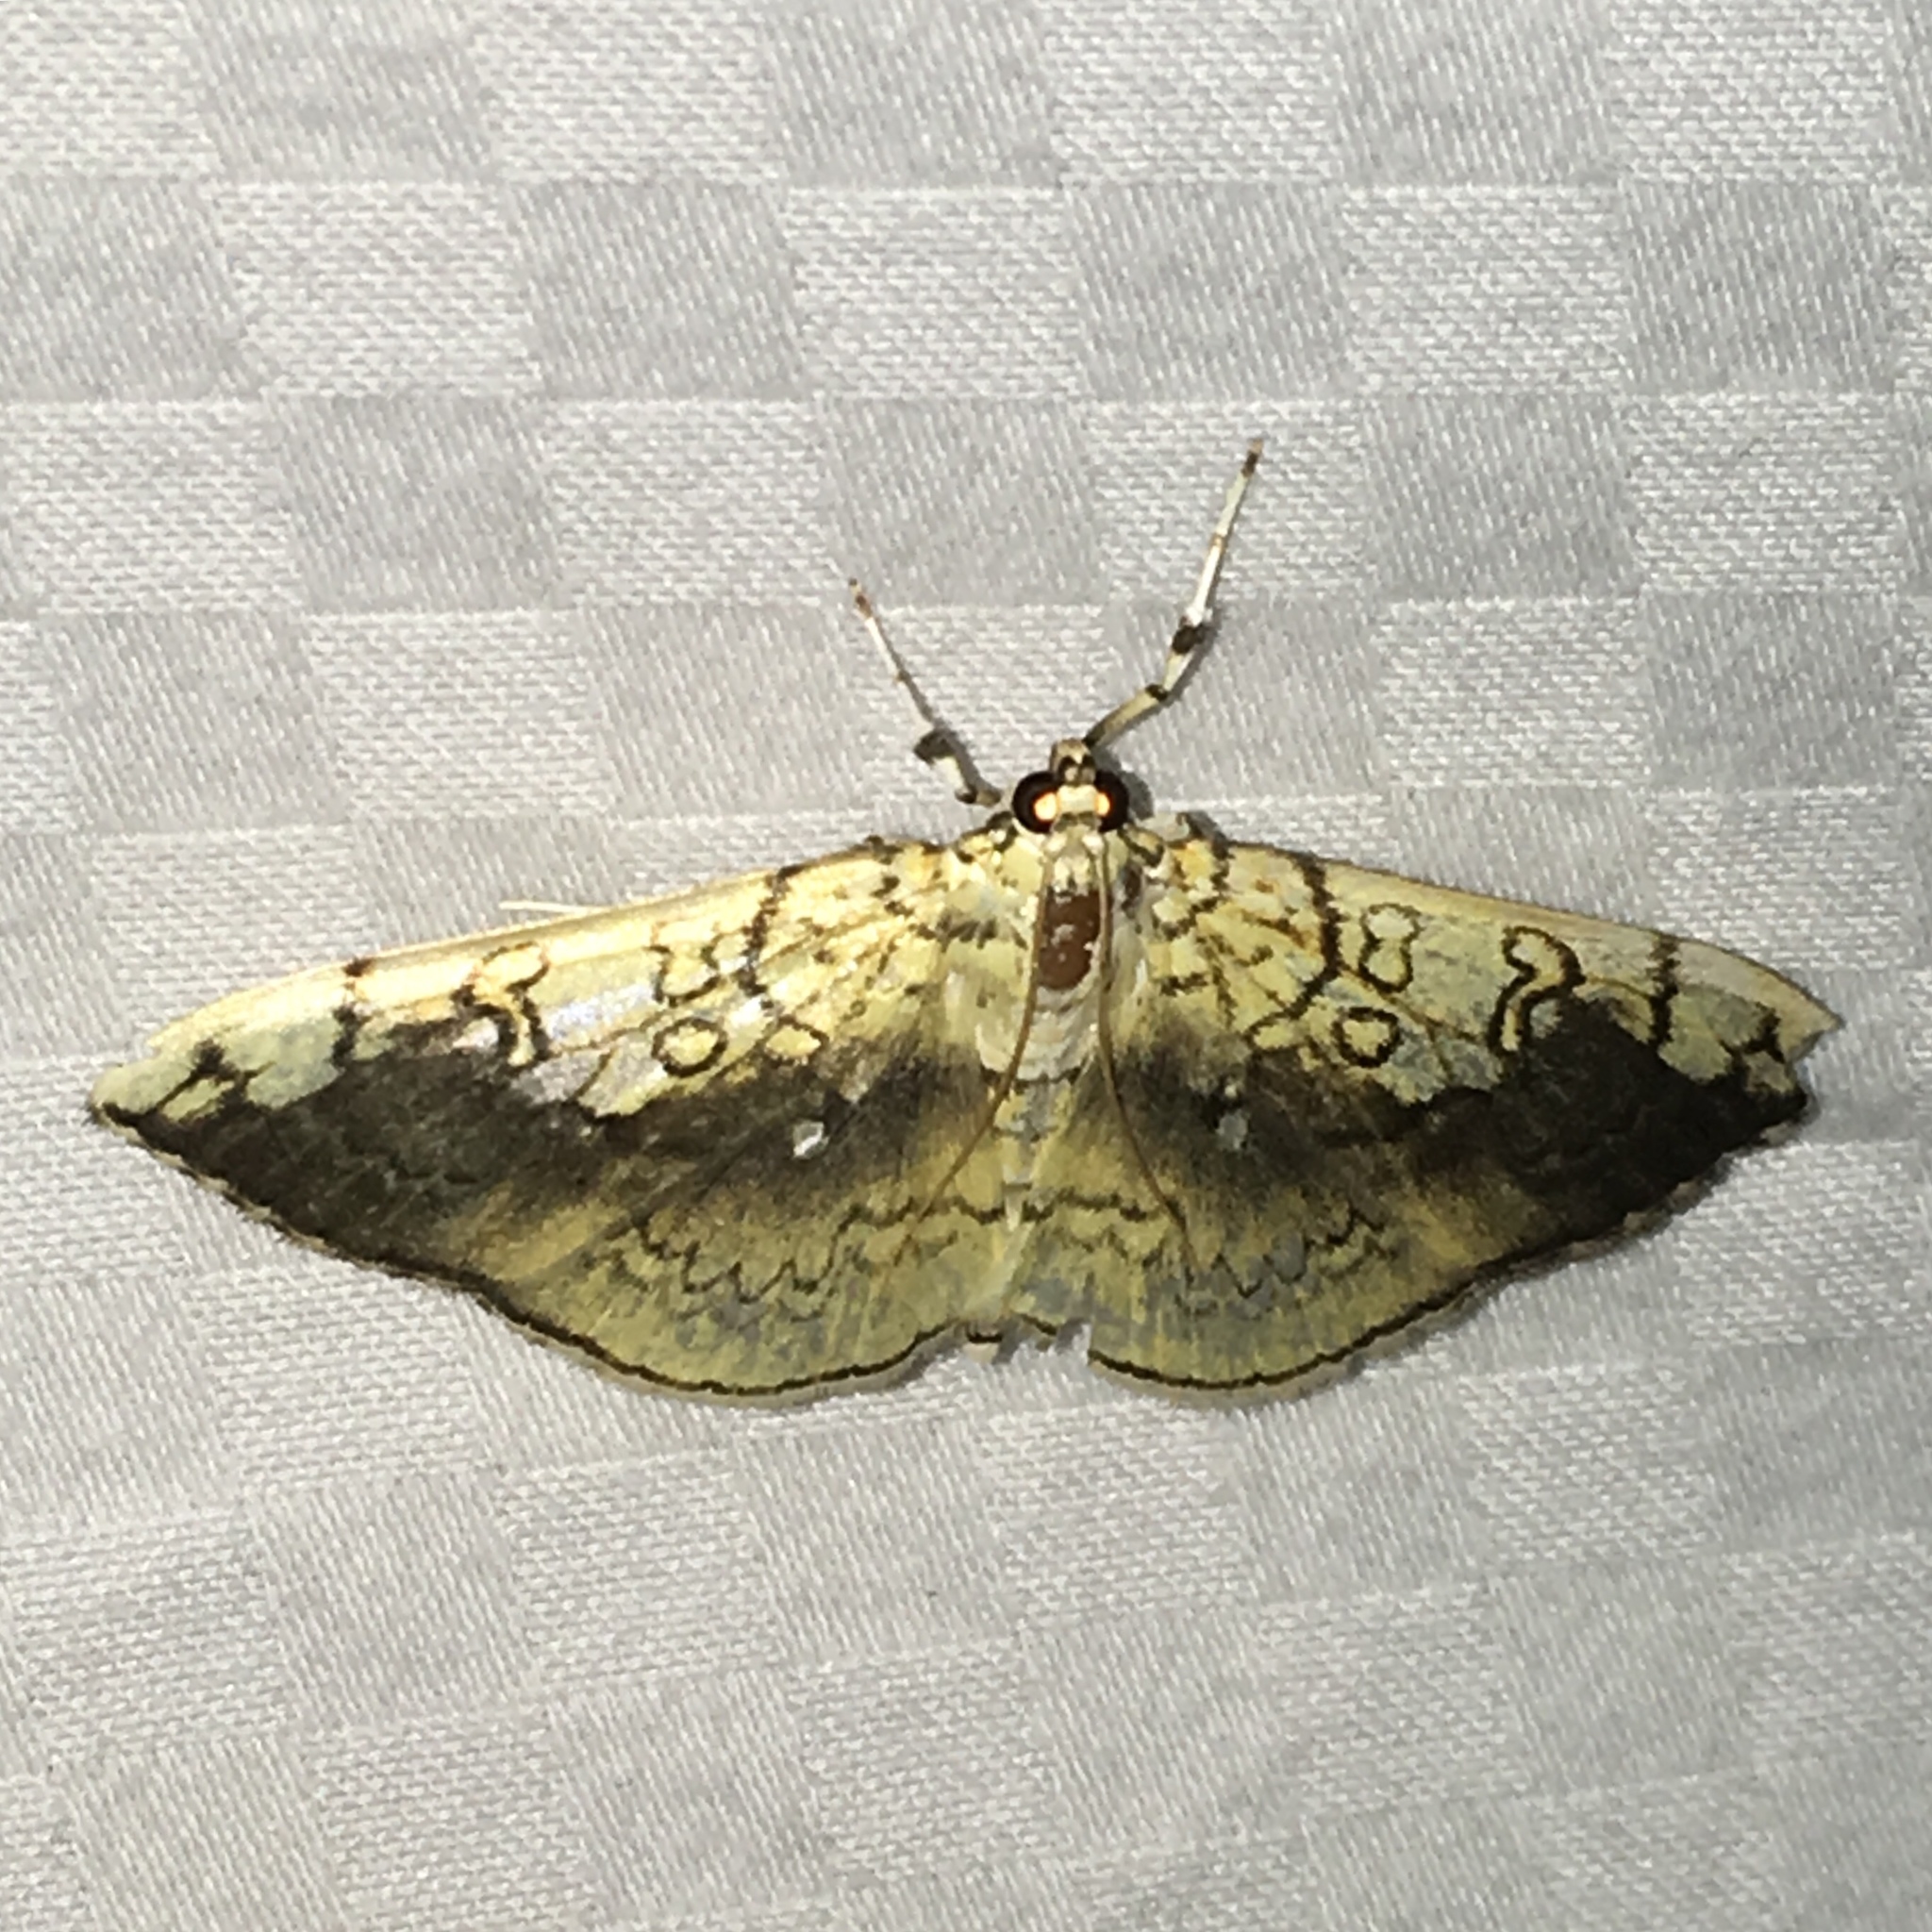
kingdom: Animalia
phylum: Arthropoda
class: Insecta
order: Lepidoptera
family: Crambidae
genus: Pantographa
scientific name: Pantographa limata
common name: Basswood leafroller moth
